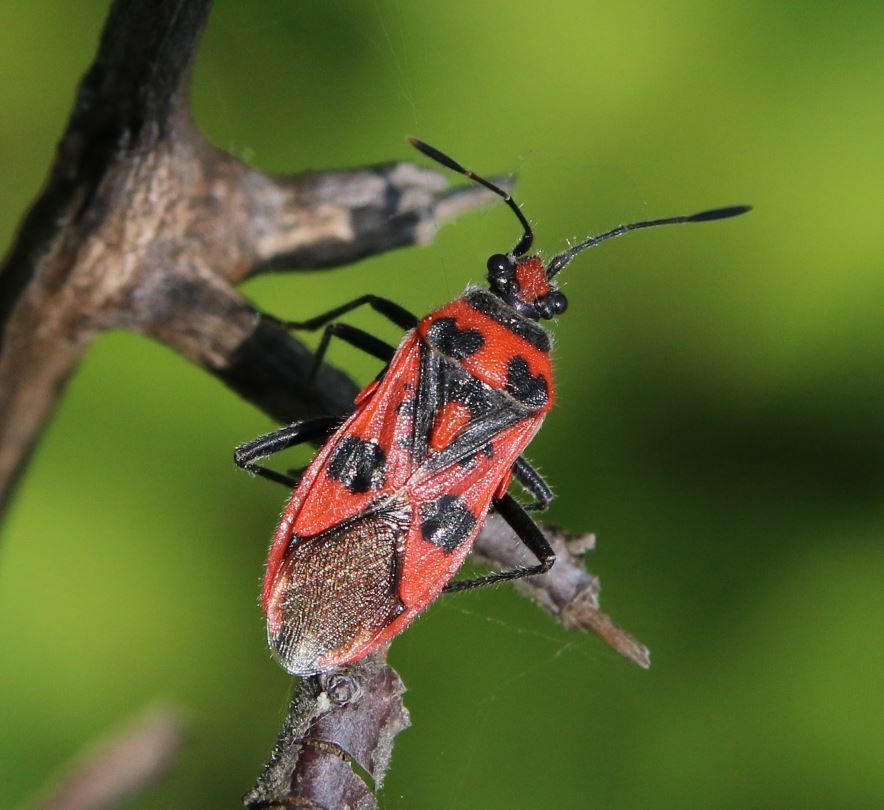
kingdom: Animalia
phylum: Arthropoda
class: Insecta
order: Hemiptera
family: Rhopalidae
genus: Corizus
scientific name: Corizus hyoscyami
